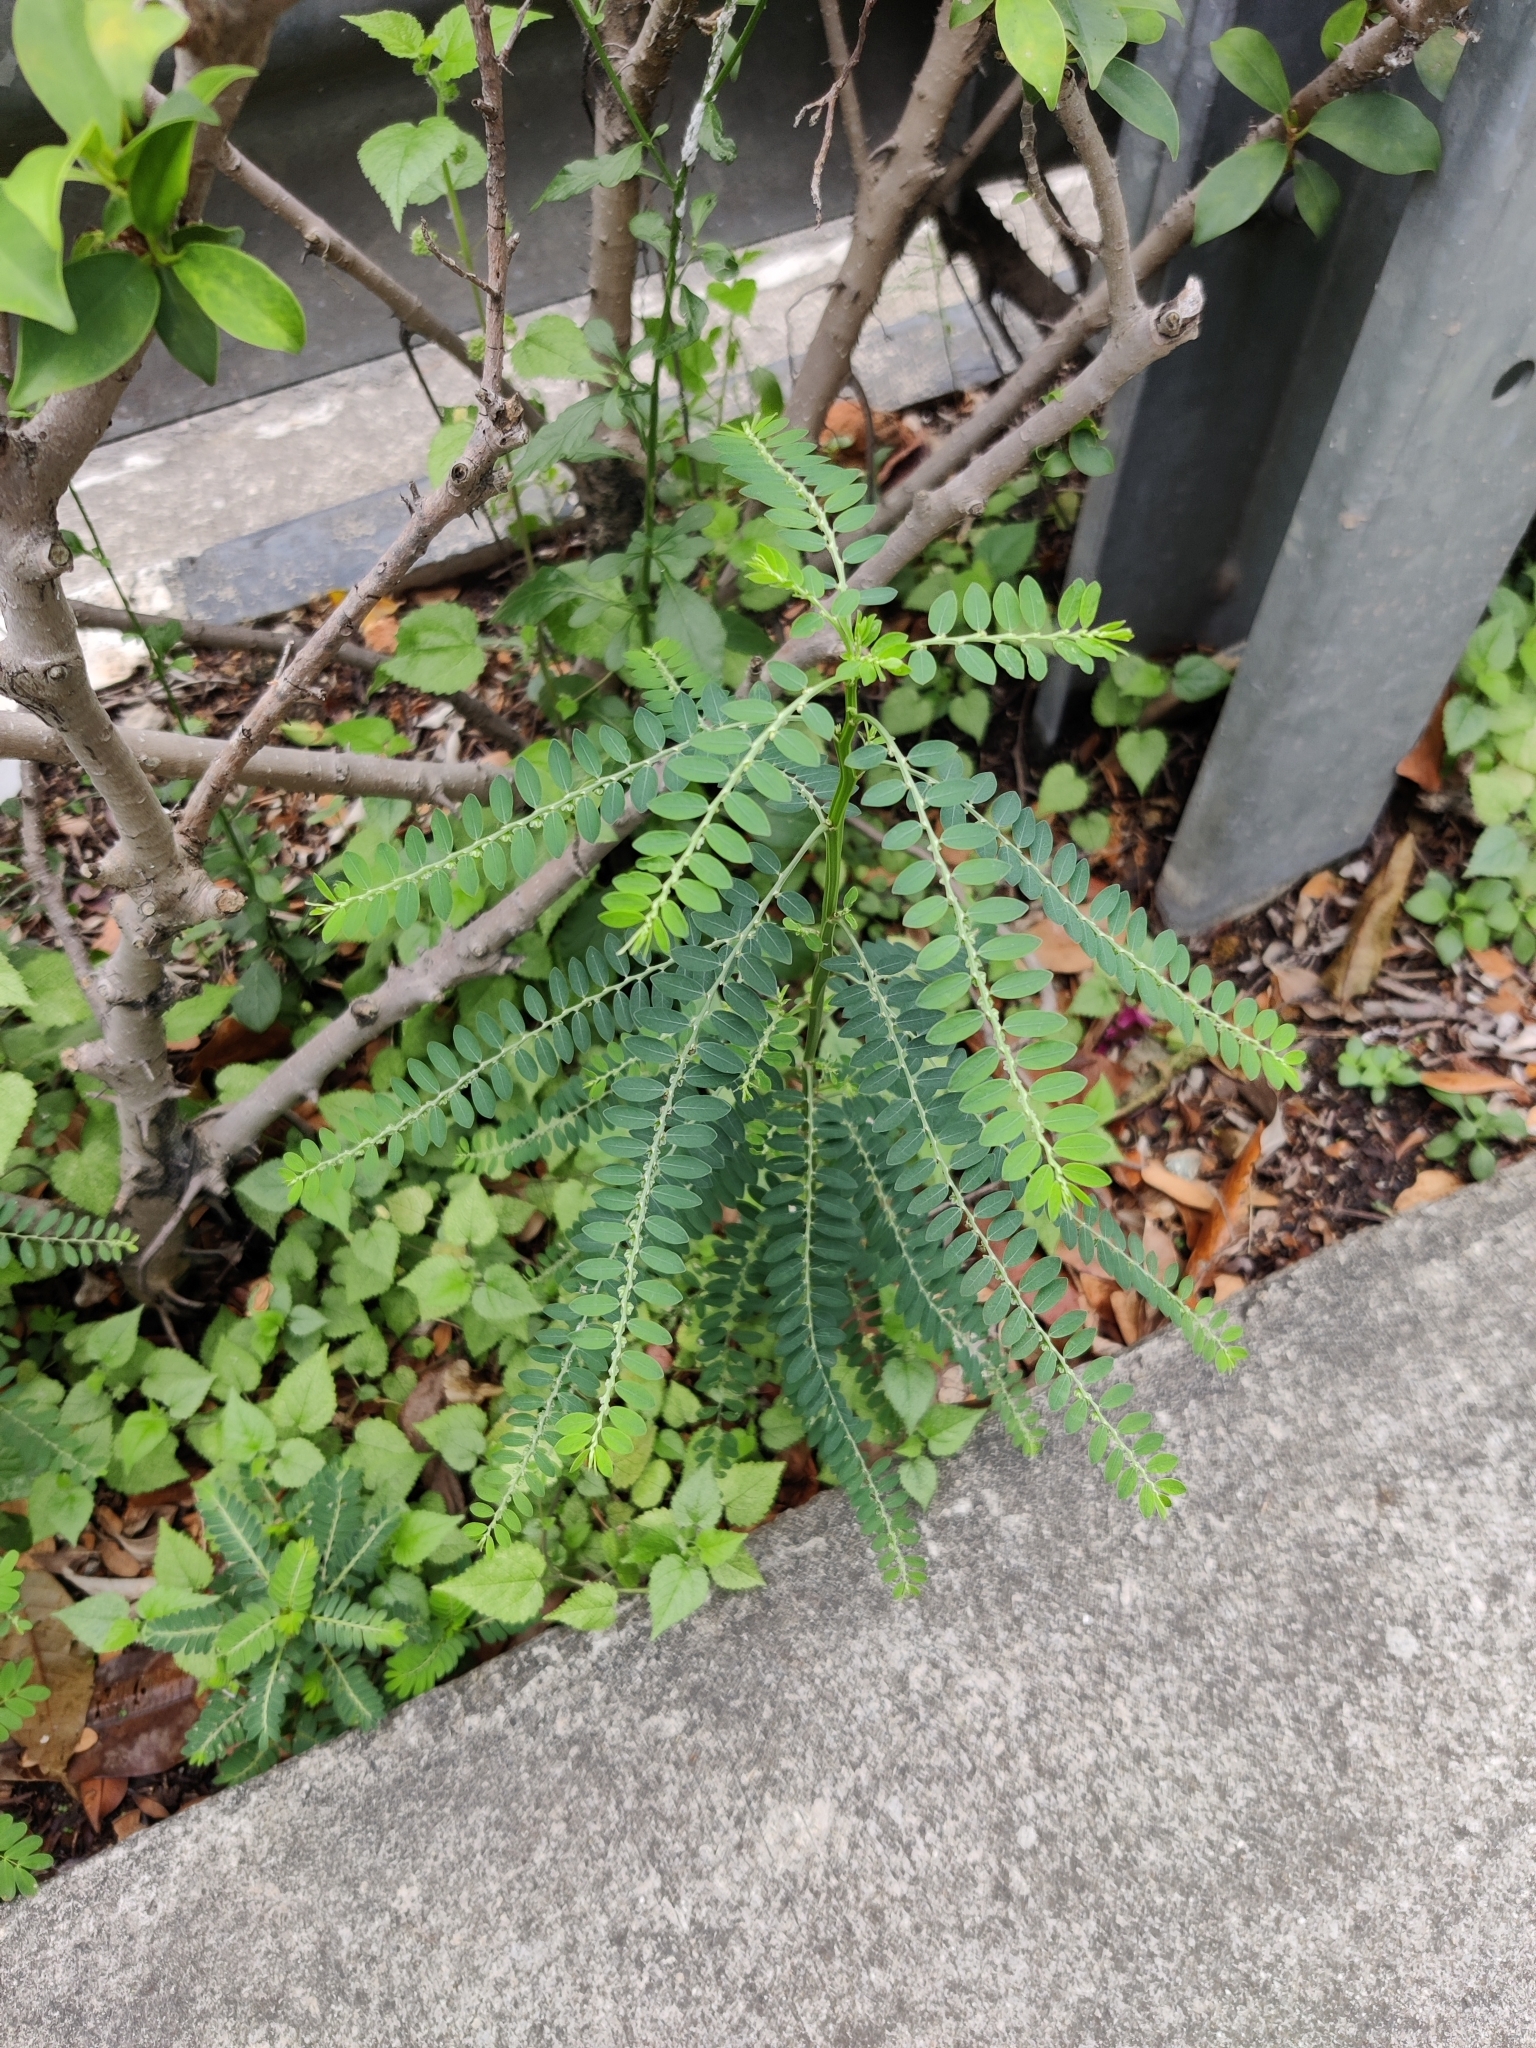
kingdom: Plantae
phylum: Tracheophyta
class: Magnoliopsida
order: Malpighiales
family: Phyllanthaceae
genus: Phyllanthus
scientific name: Phyllanthus debilis
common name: Niruri
